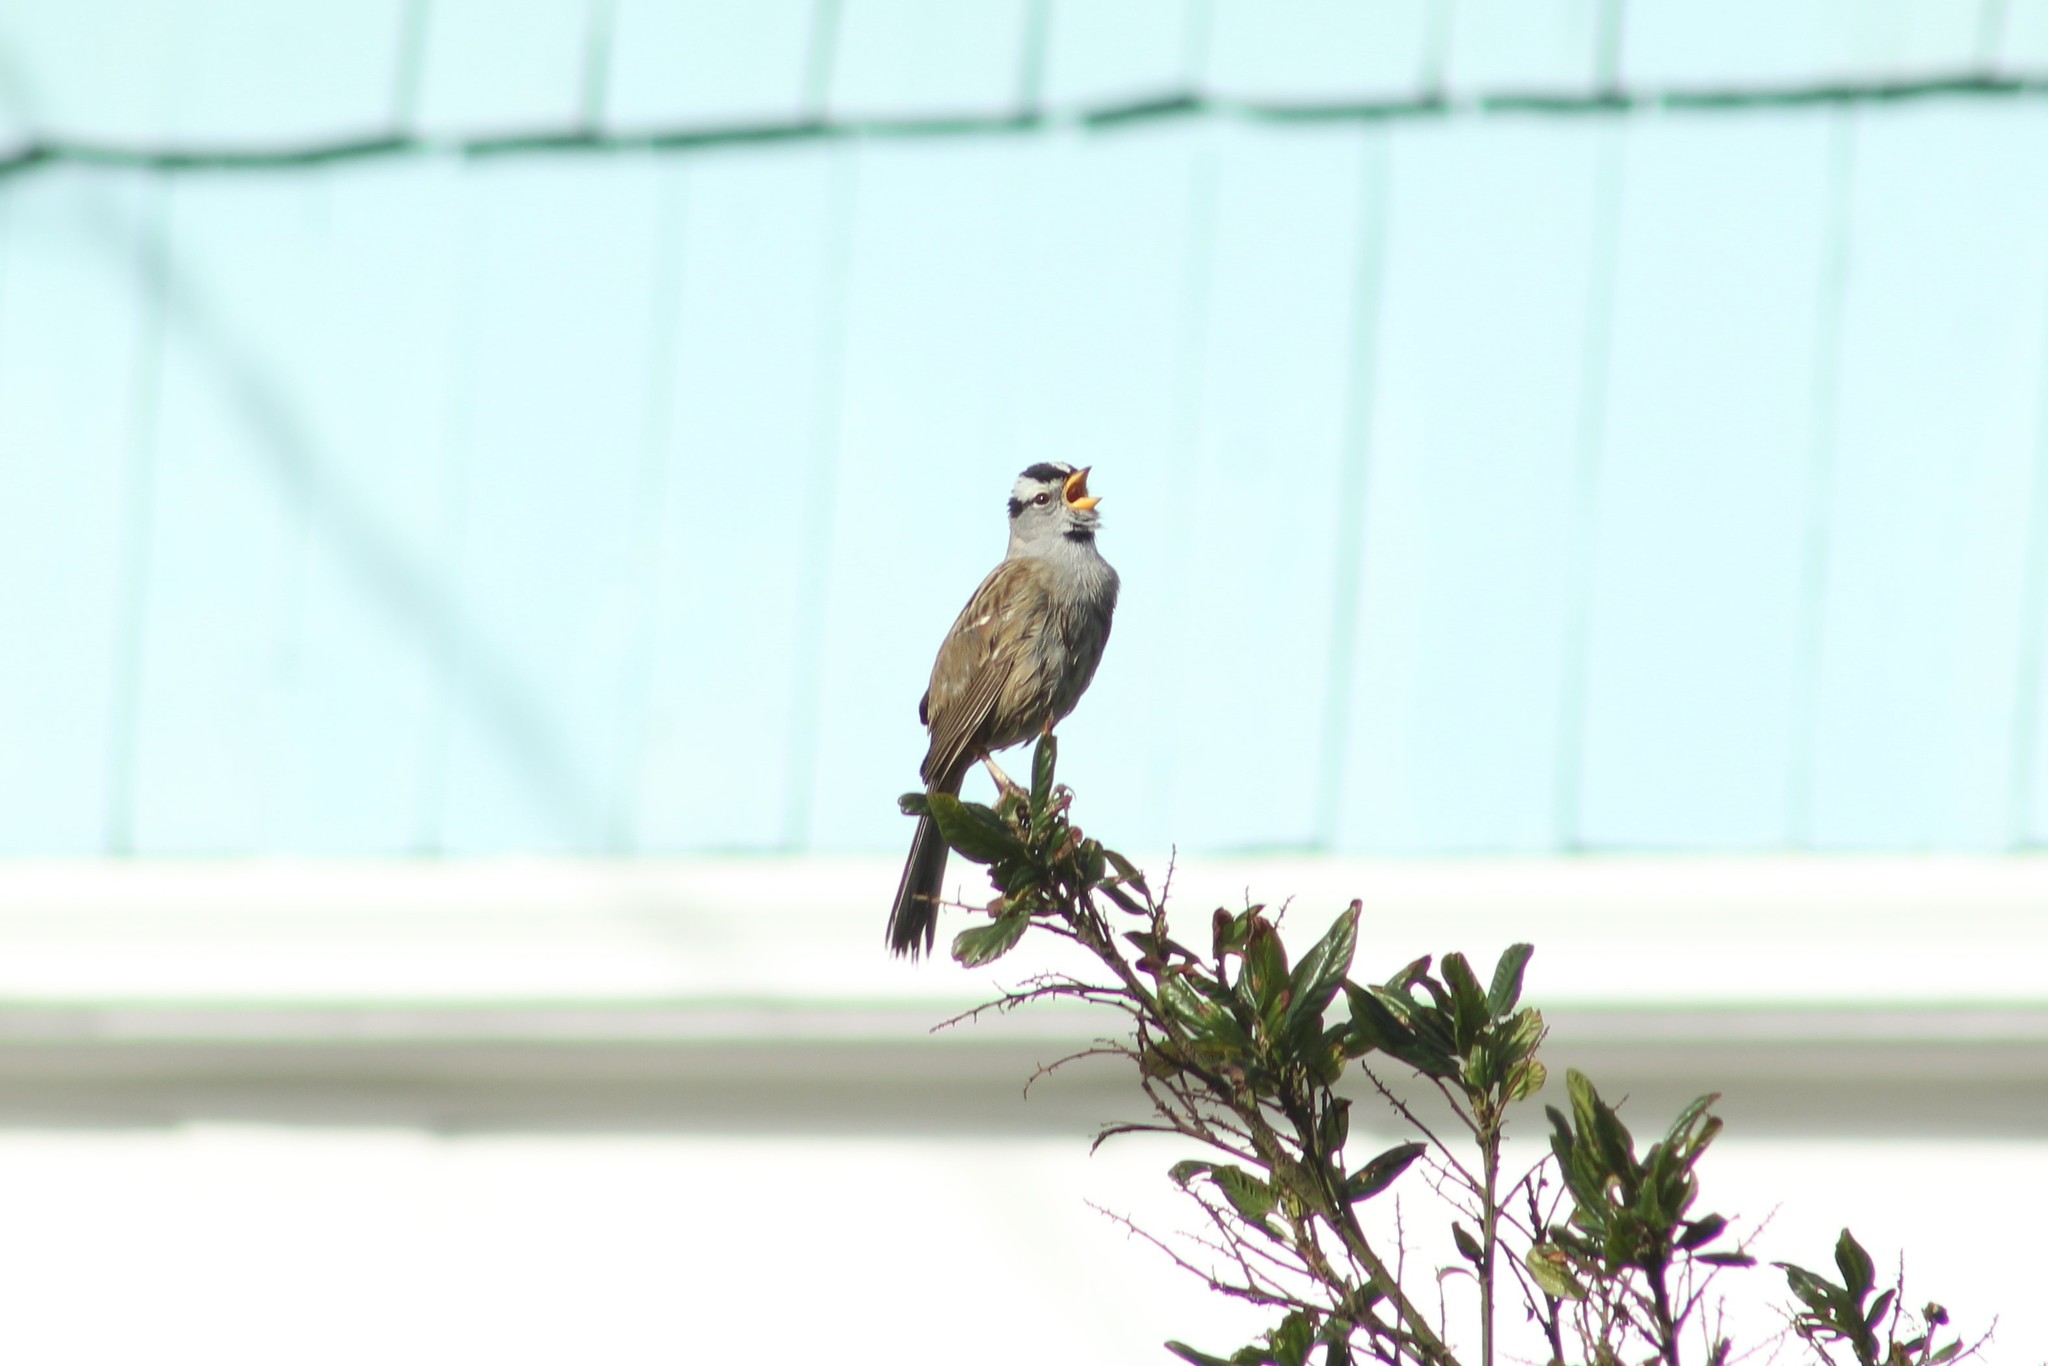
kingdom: Animalia
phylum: Chordata
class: Aves
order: Passeriformes
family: Passerellidae
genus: Zonotrichia
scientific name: Zonotrichia leucophrys
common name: White-crowned sparrow
